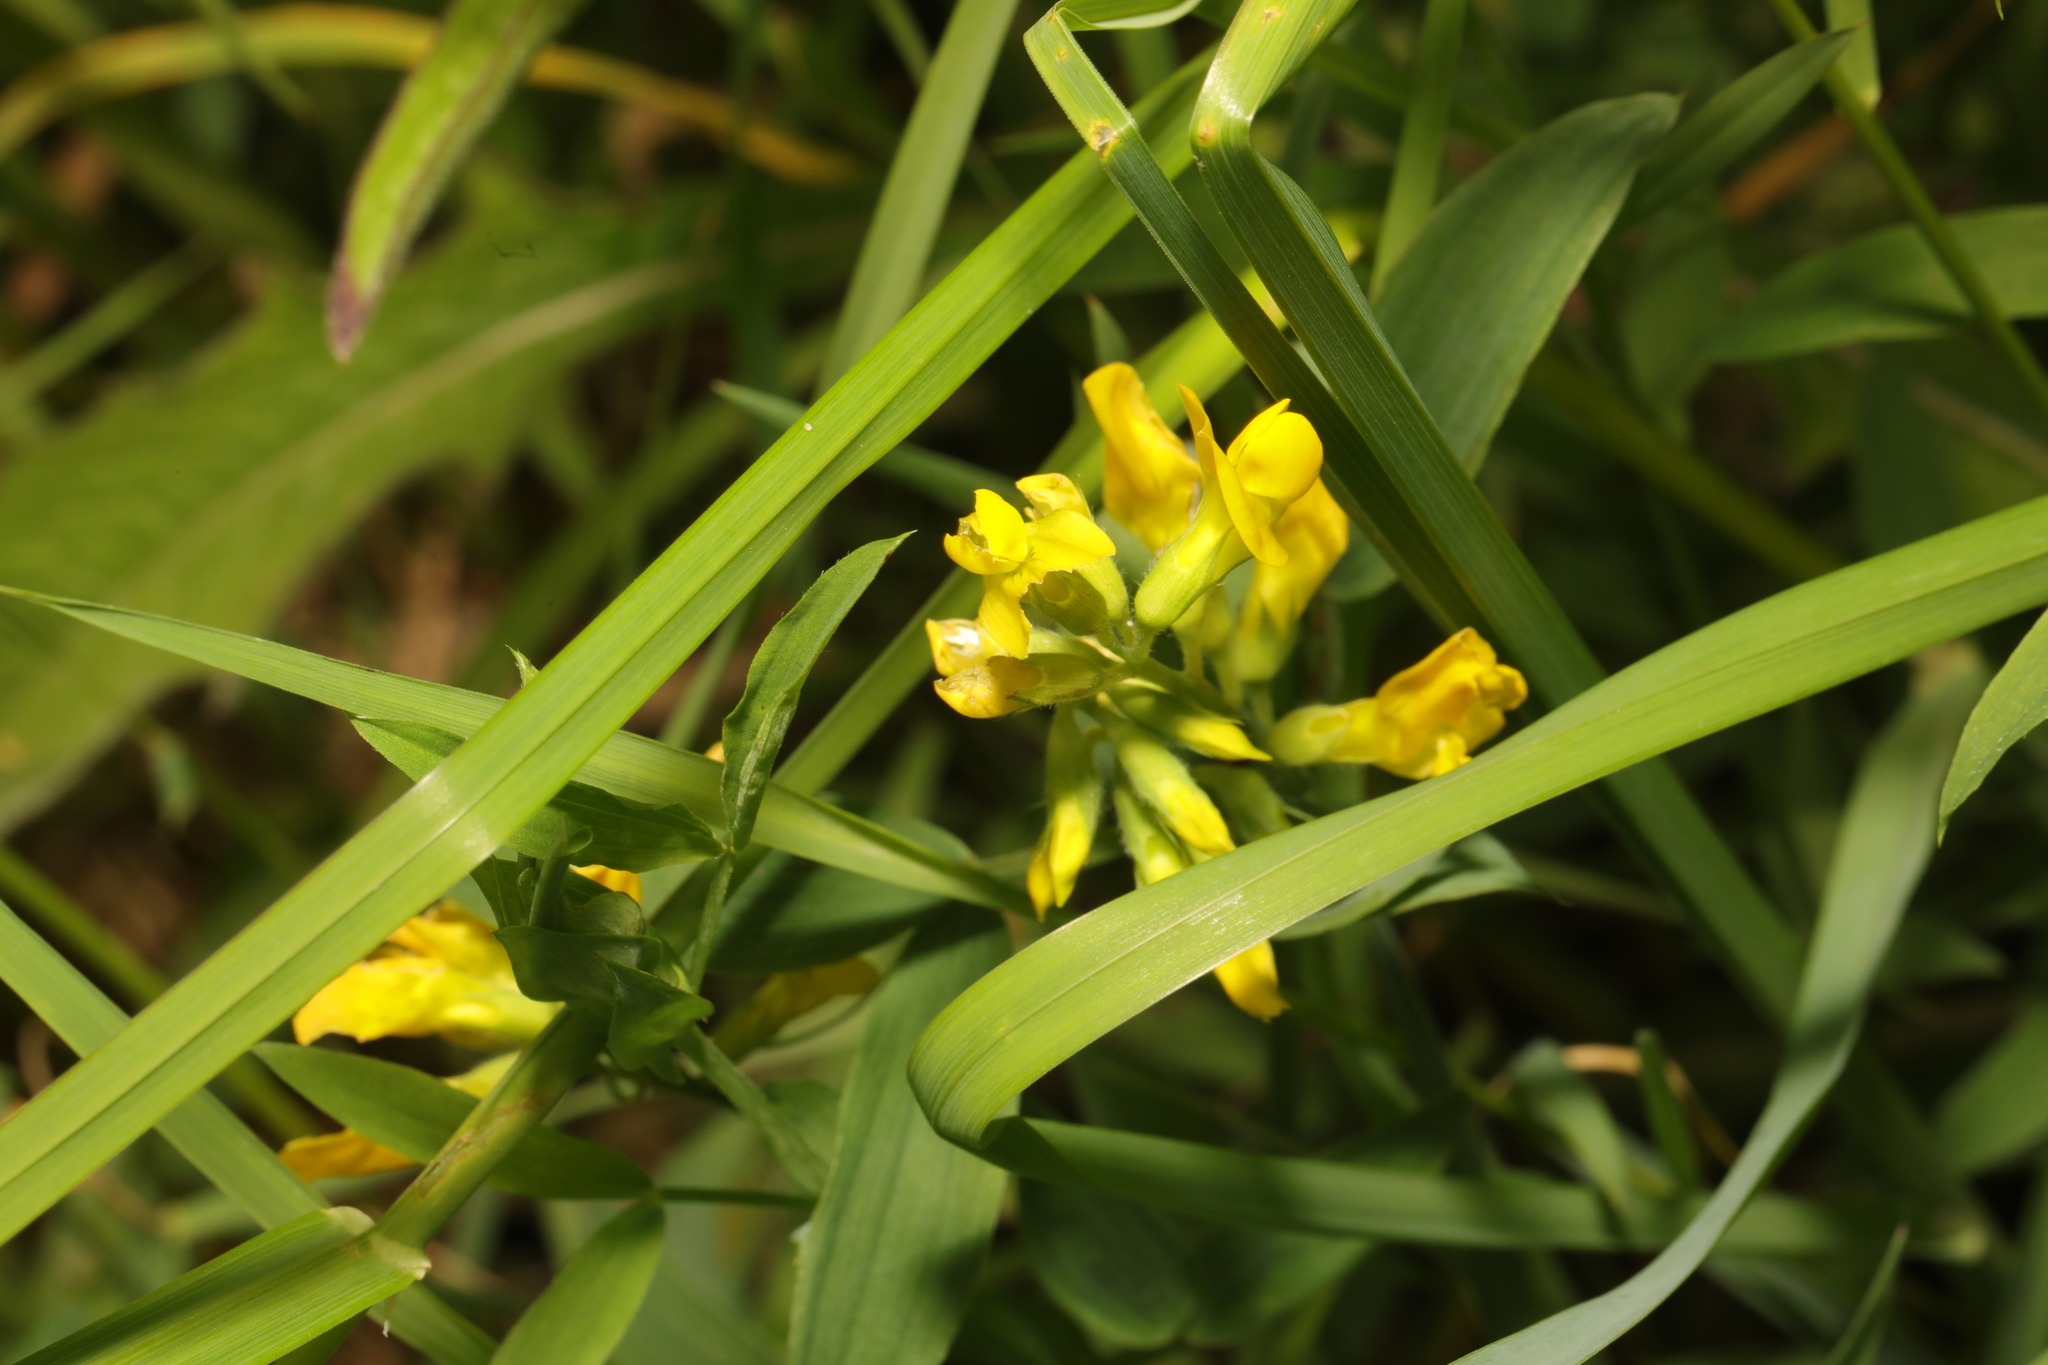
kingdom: Plantae
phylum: Tracheophyta
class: Magnoliopsida
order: Fabales
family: Fabaceae
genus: Lathyrus
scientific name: Lathyrus pratensis
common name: Meadow vetchling
